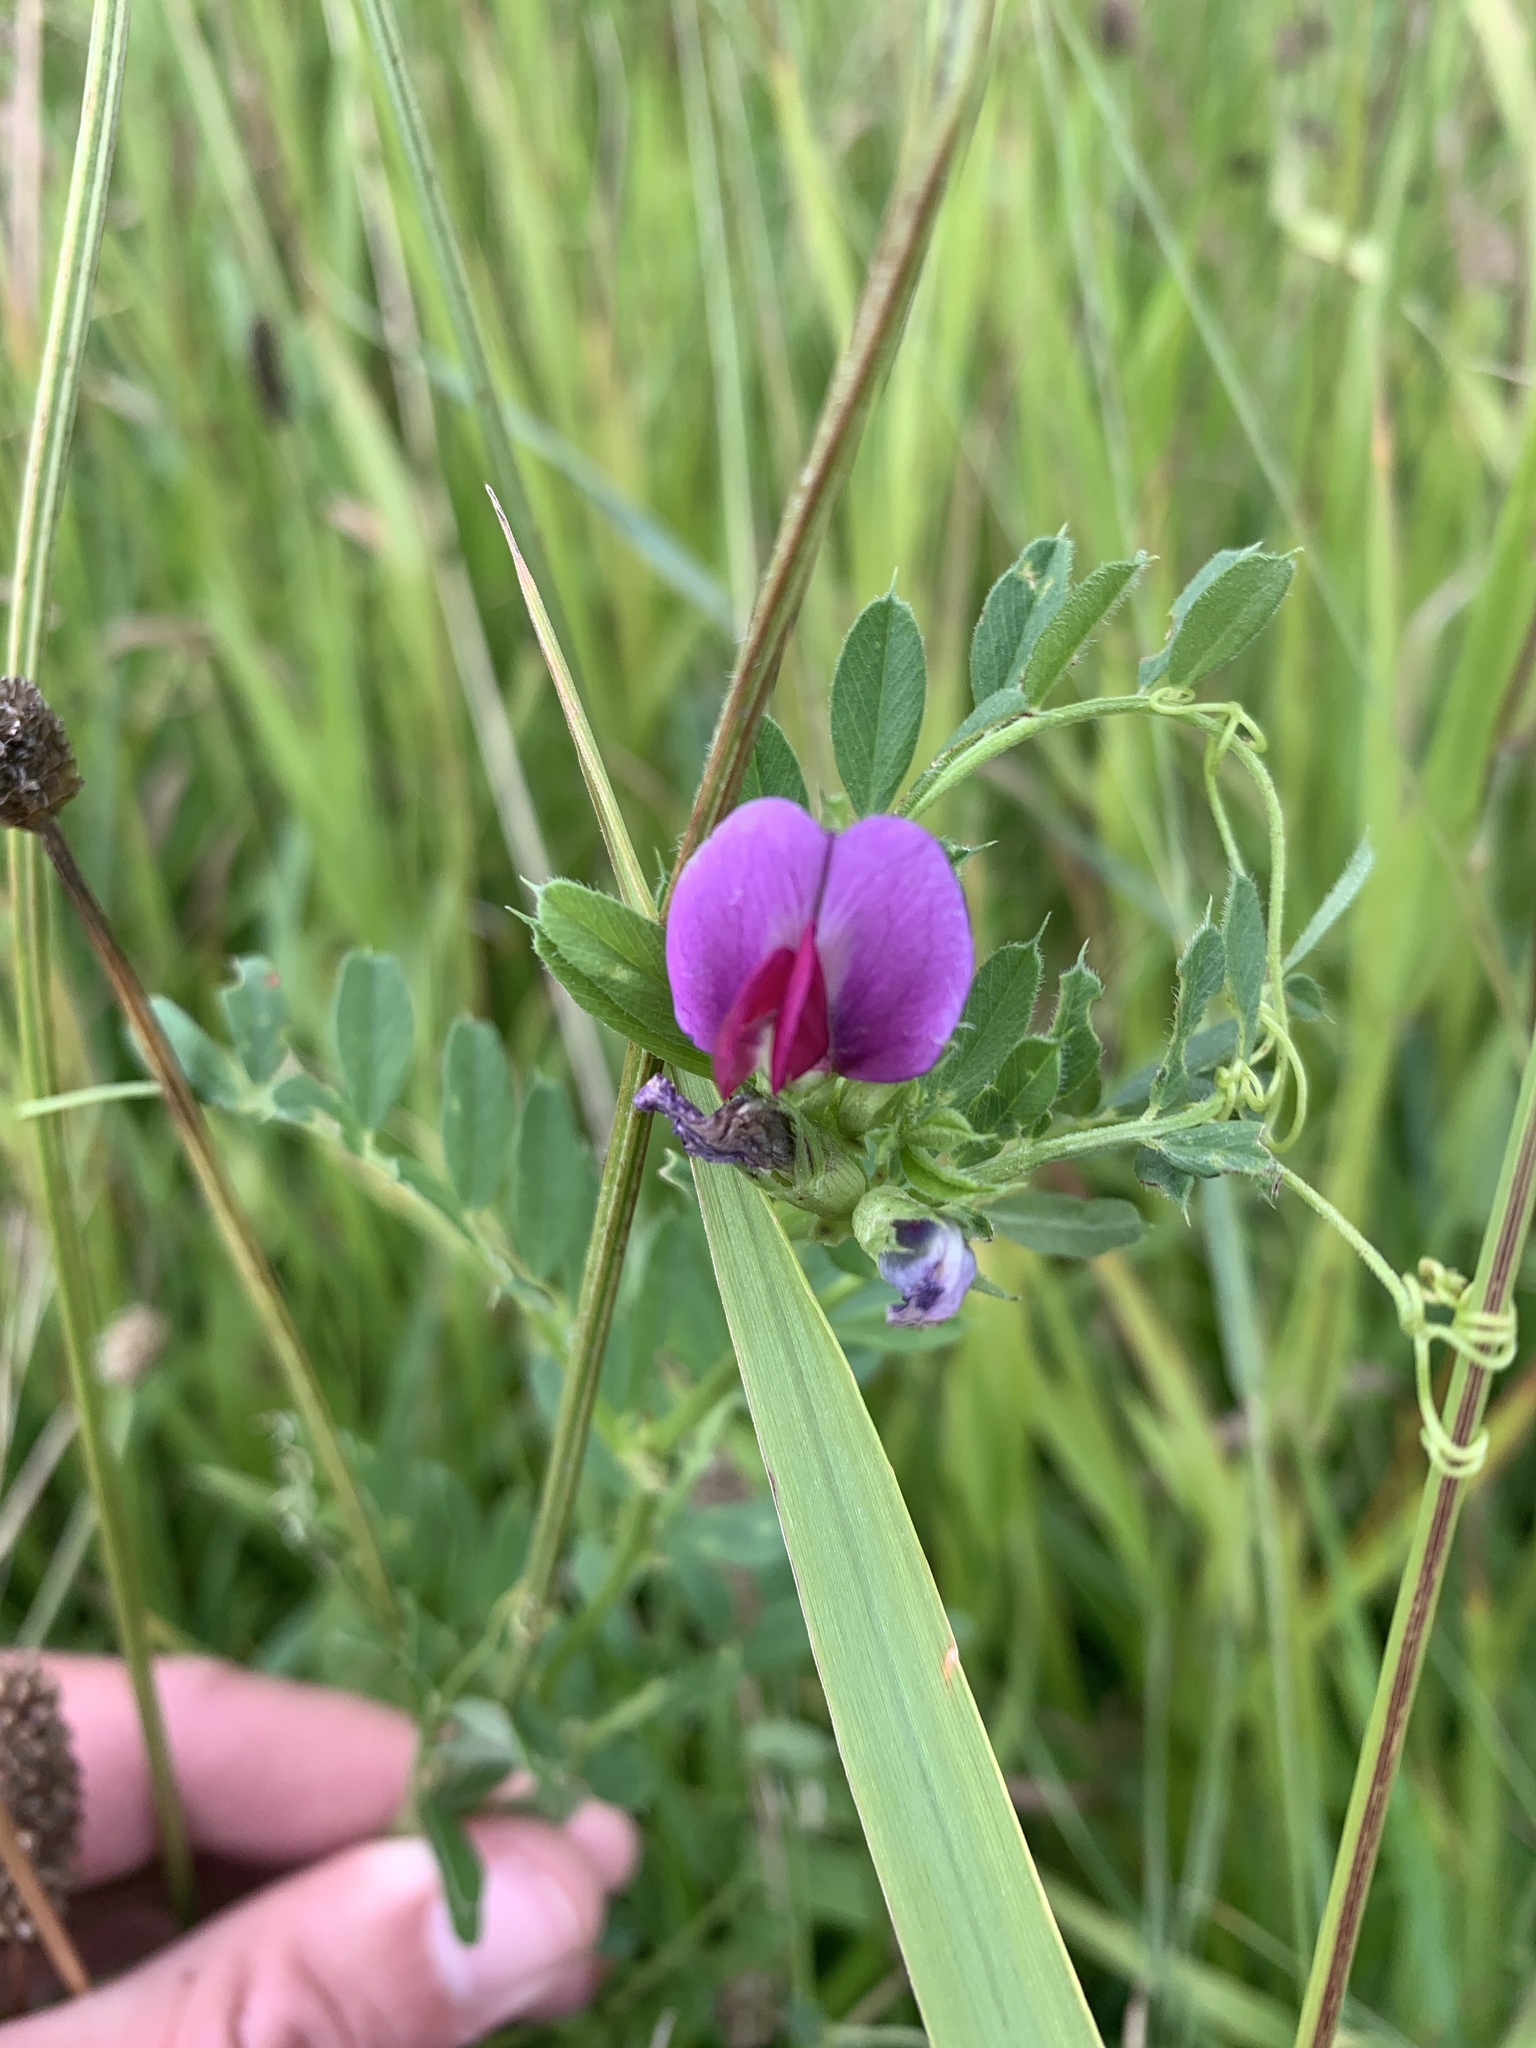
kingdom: Plantae
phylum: Tracheophyta
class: Magnoliopsida
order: Fabales
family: Fabaceae
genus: Vicia
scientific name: Vicia sativa
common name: Garden vetch
